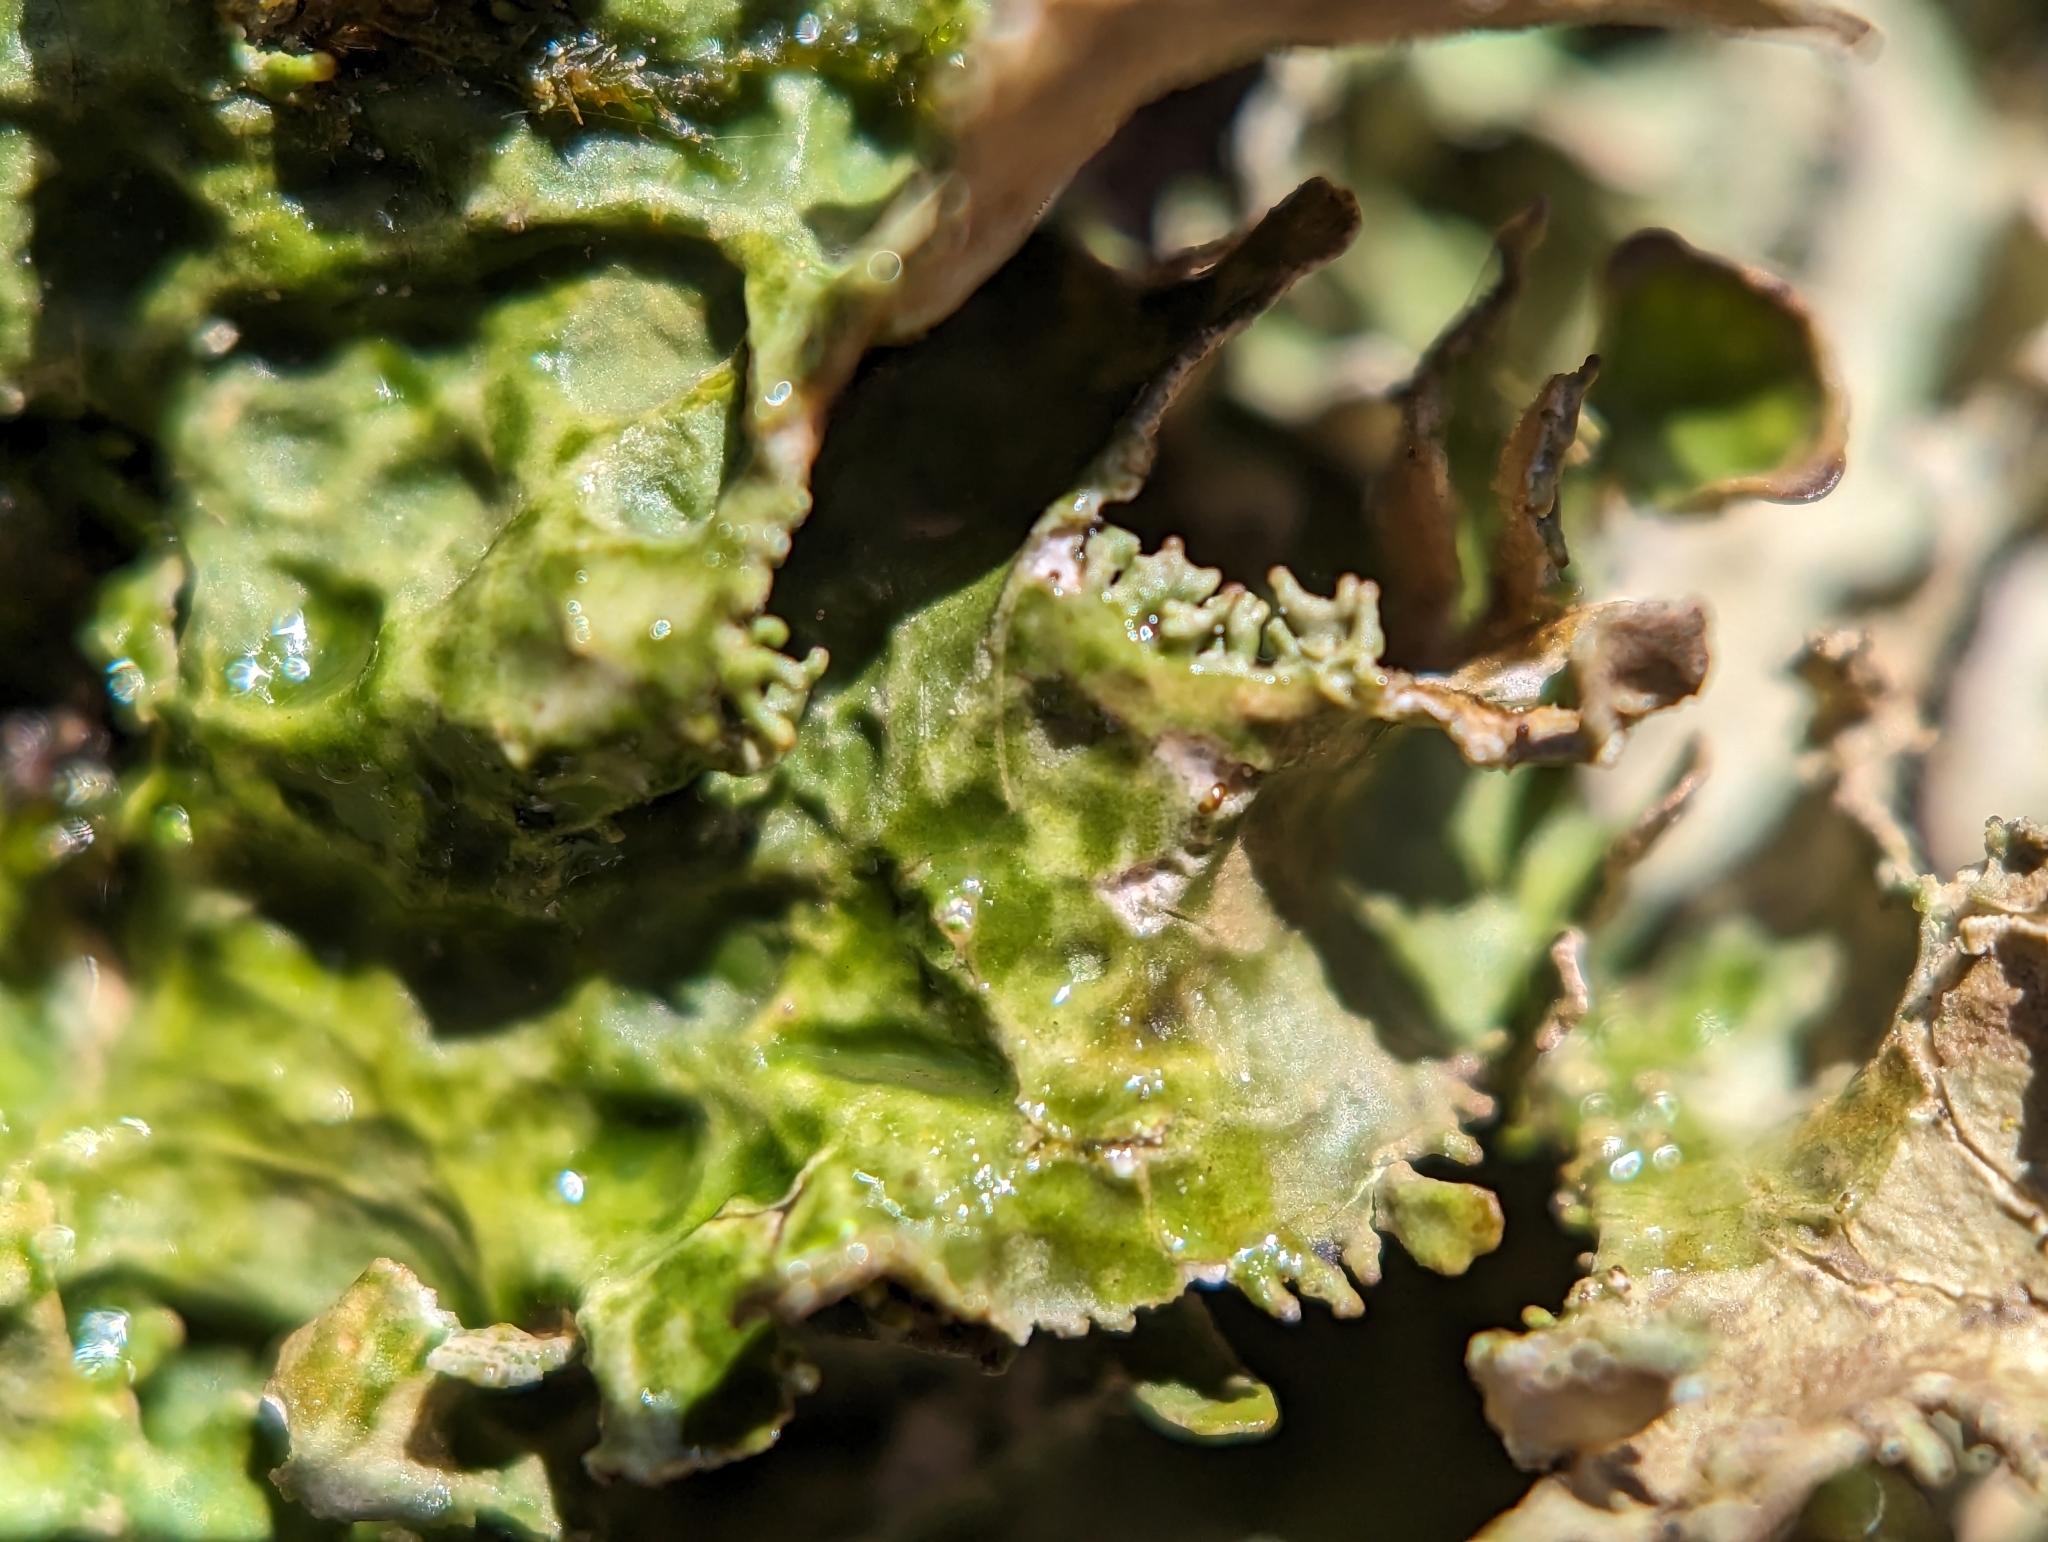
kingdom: Fungi
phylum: Ascomycota
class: Lecanoromycetes
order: Peltigerales
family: Lobariaceae
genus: Lobaria
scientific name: Lobaria pulmonaria
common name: Lungwort
